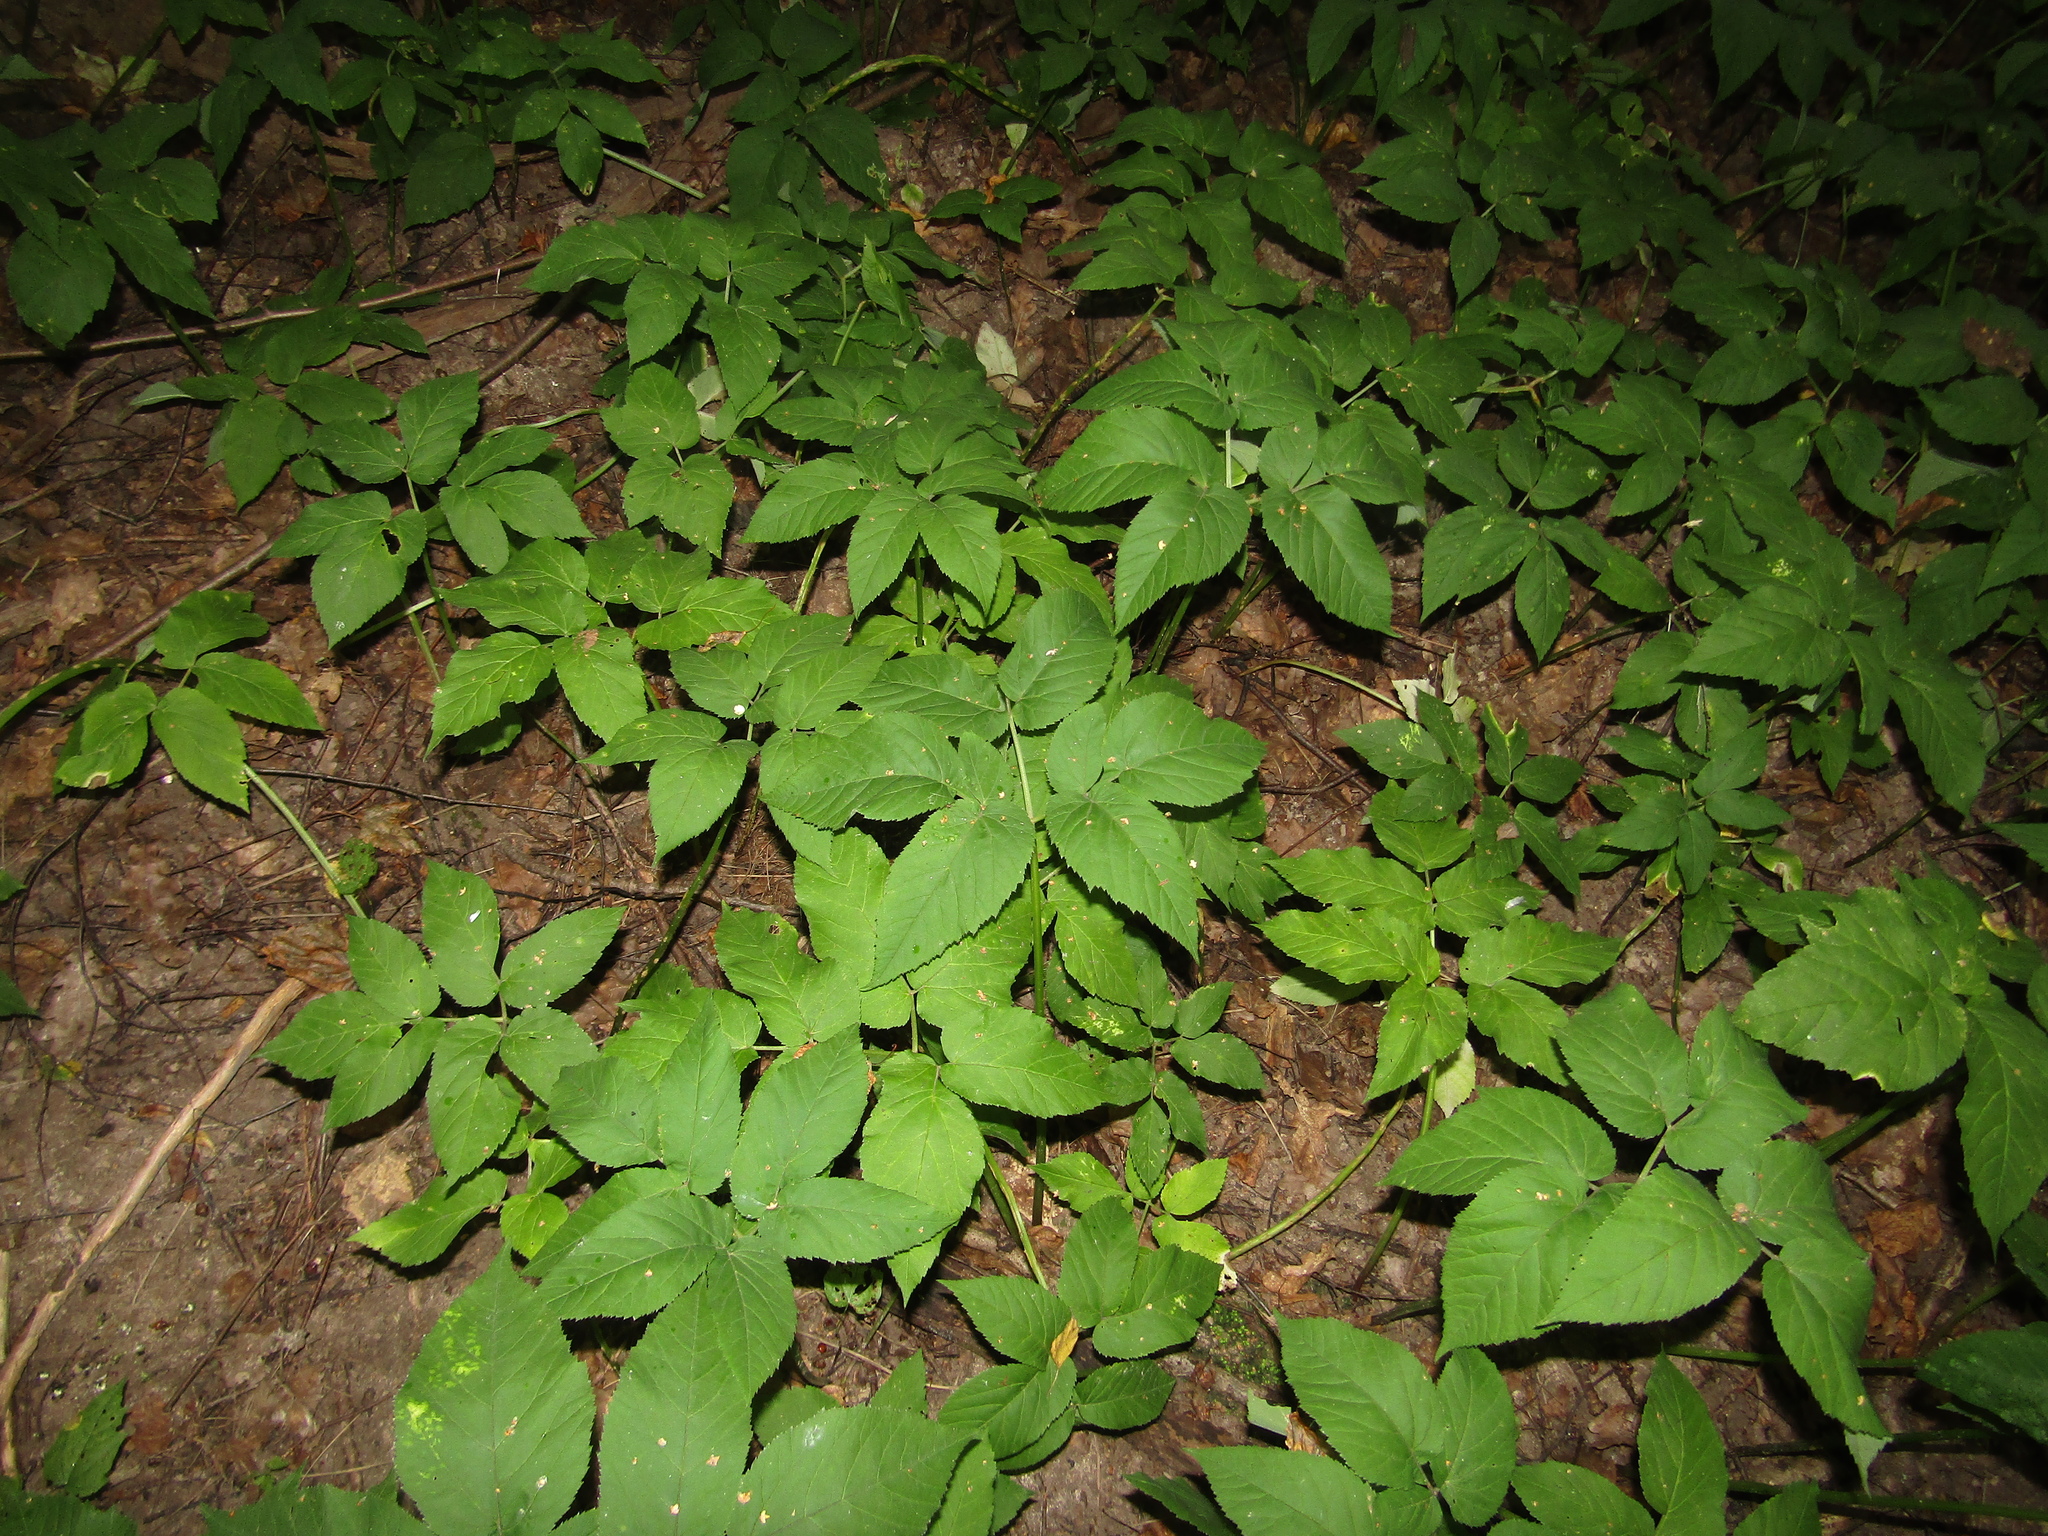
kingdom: Plantae
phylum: Tracheophyta
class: Magnoliopsida
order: Apiales
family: Apiaceae
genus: Aegopodium
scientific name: Aegopodium podagraria
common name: Ground-elder
